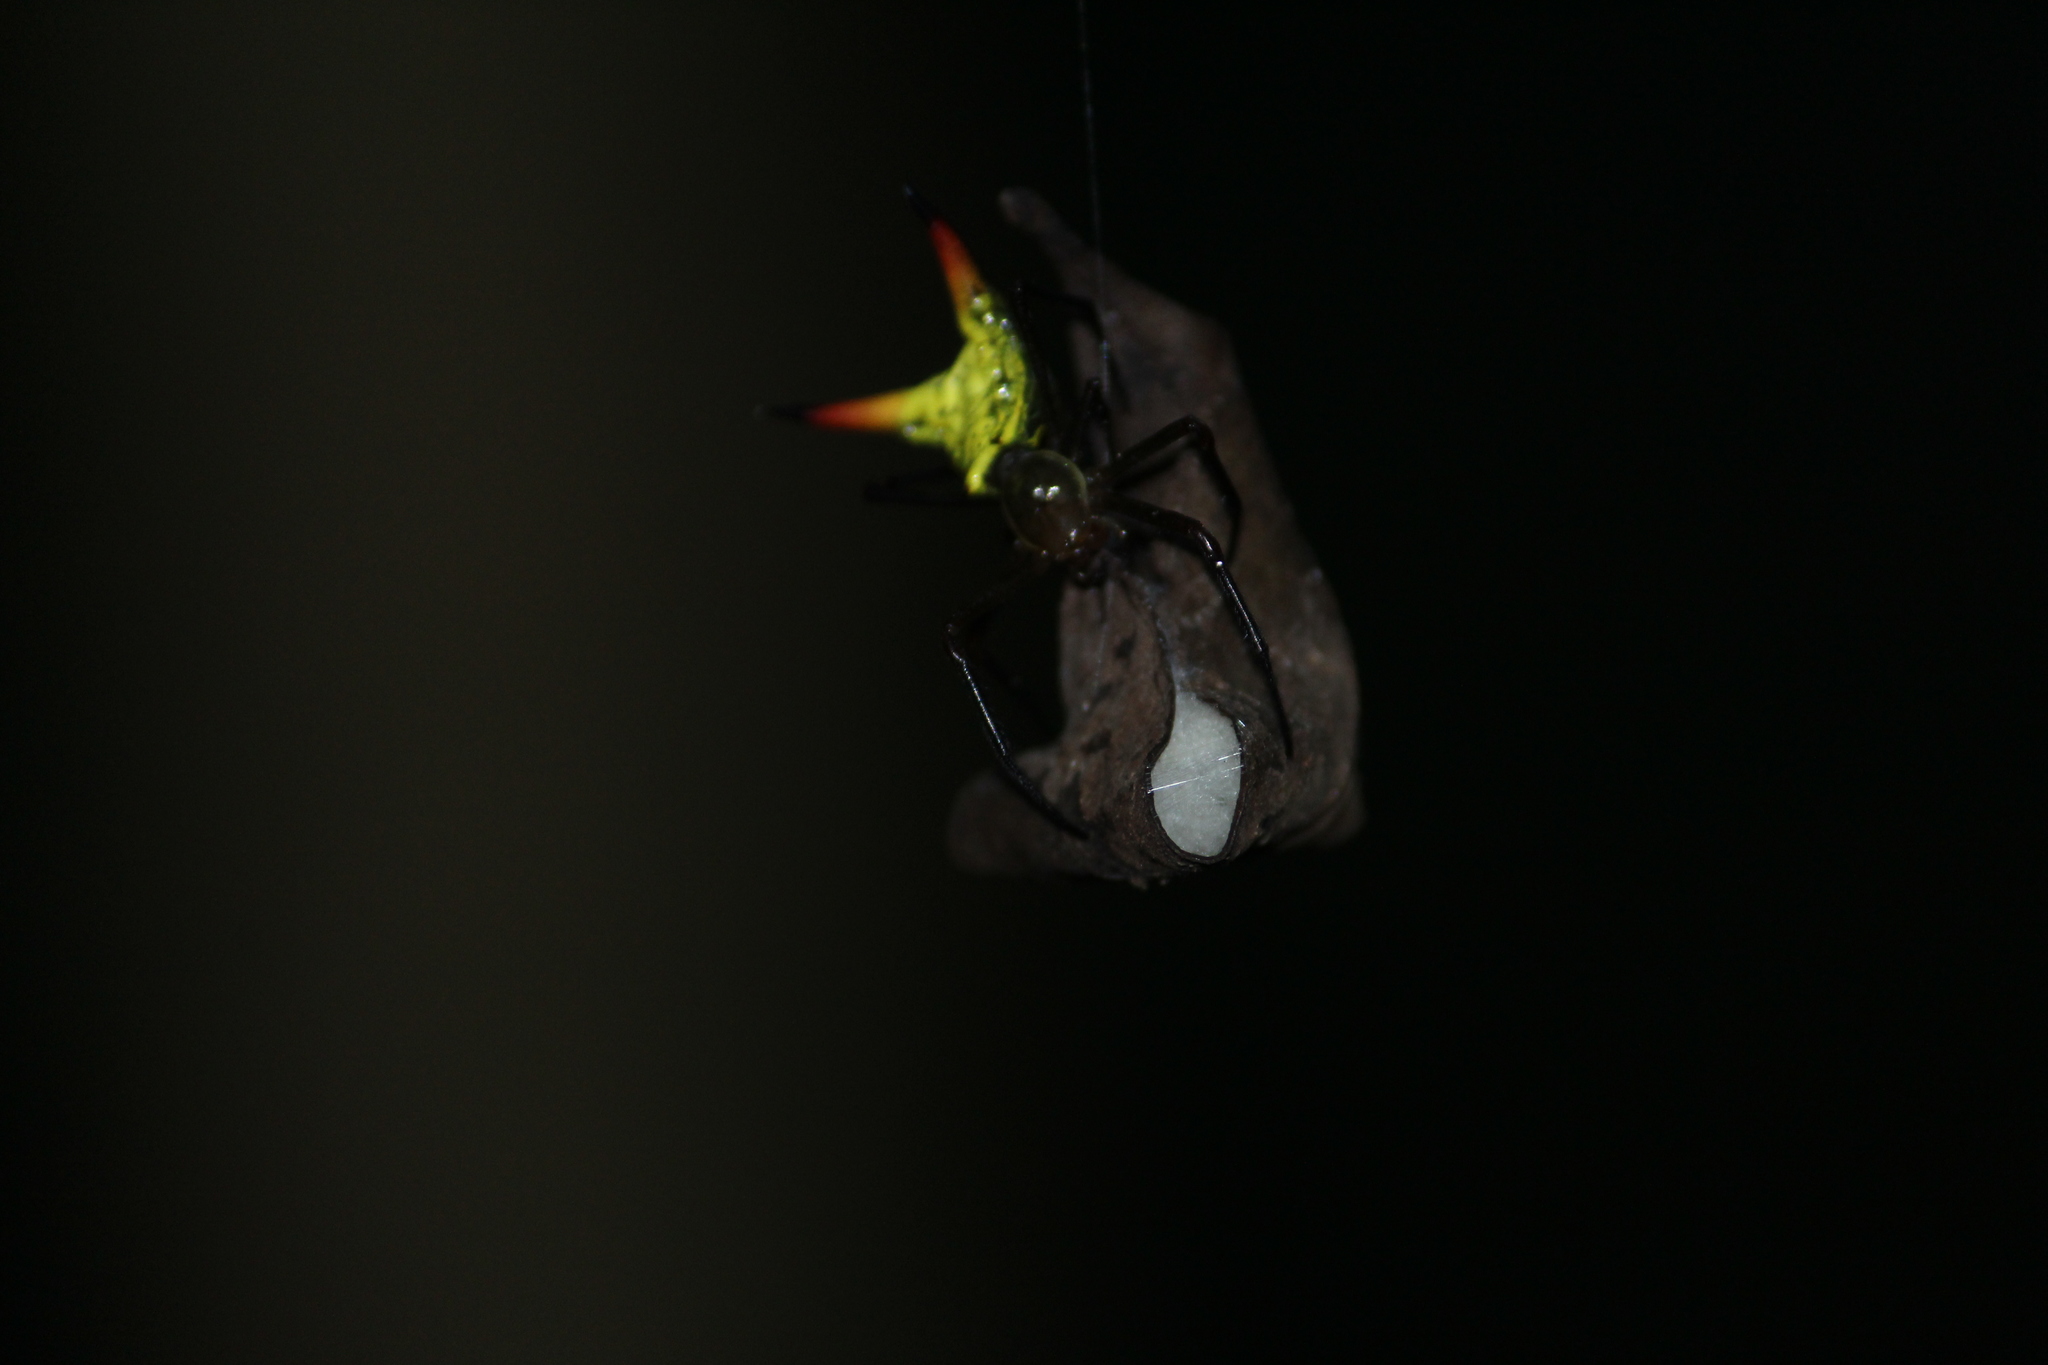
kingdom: Animalia
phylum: Arthropoda
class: Arachnida
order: Araneae
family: Araneidae
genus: Micrathena
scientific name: Micrathena crassispina
